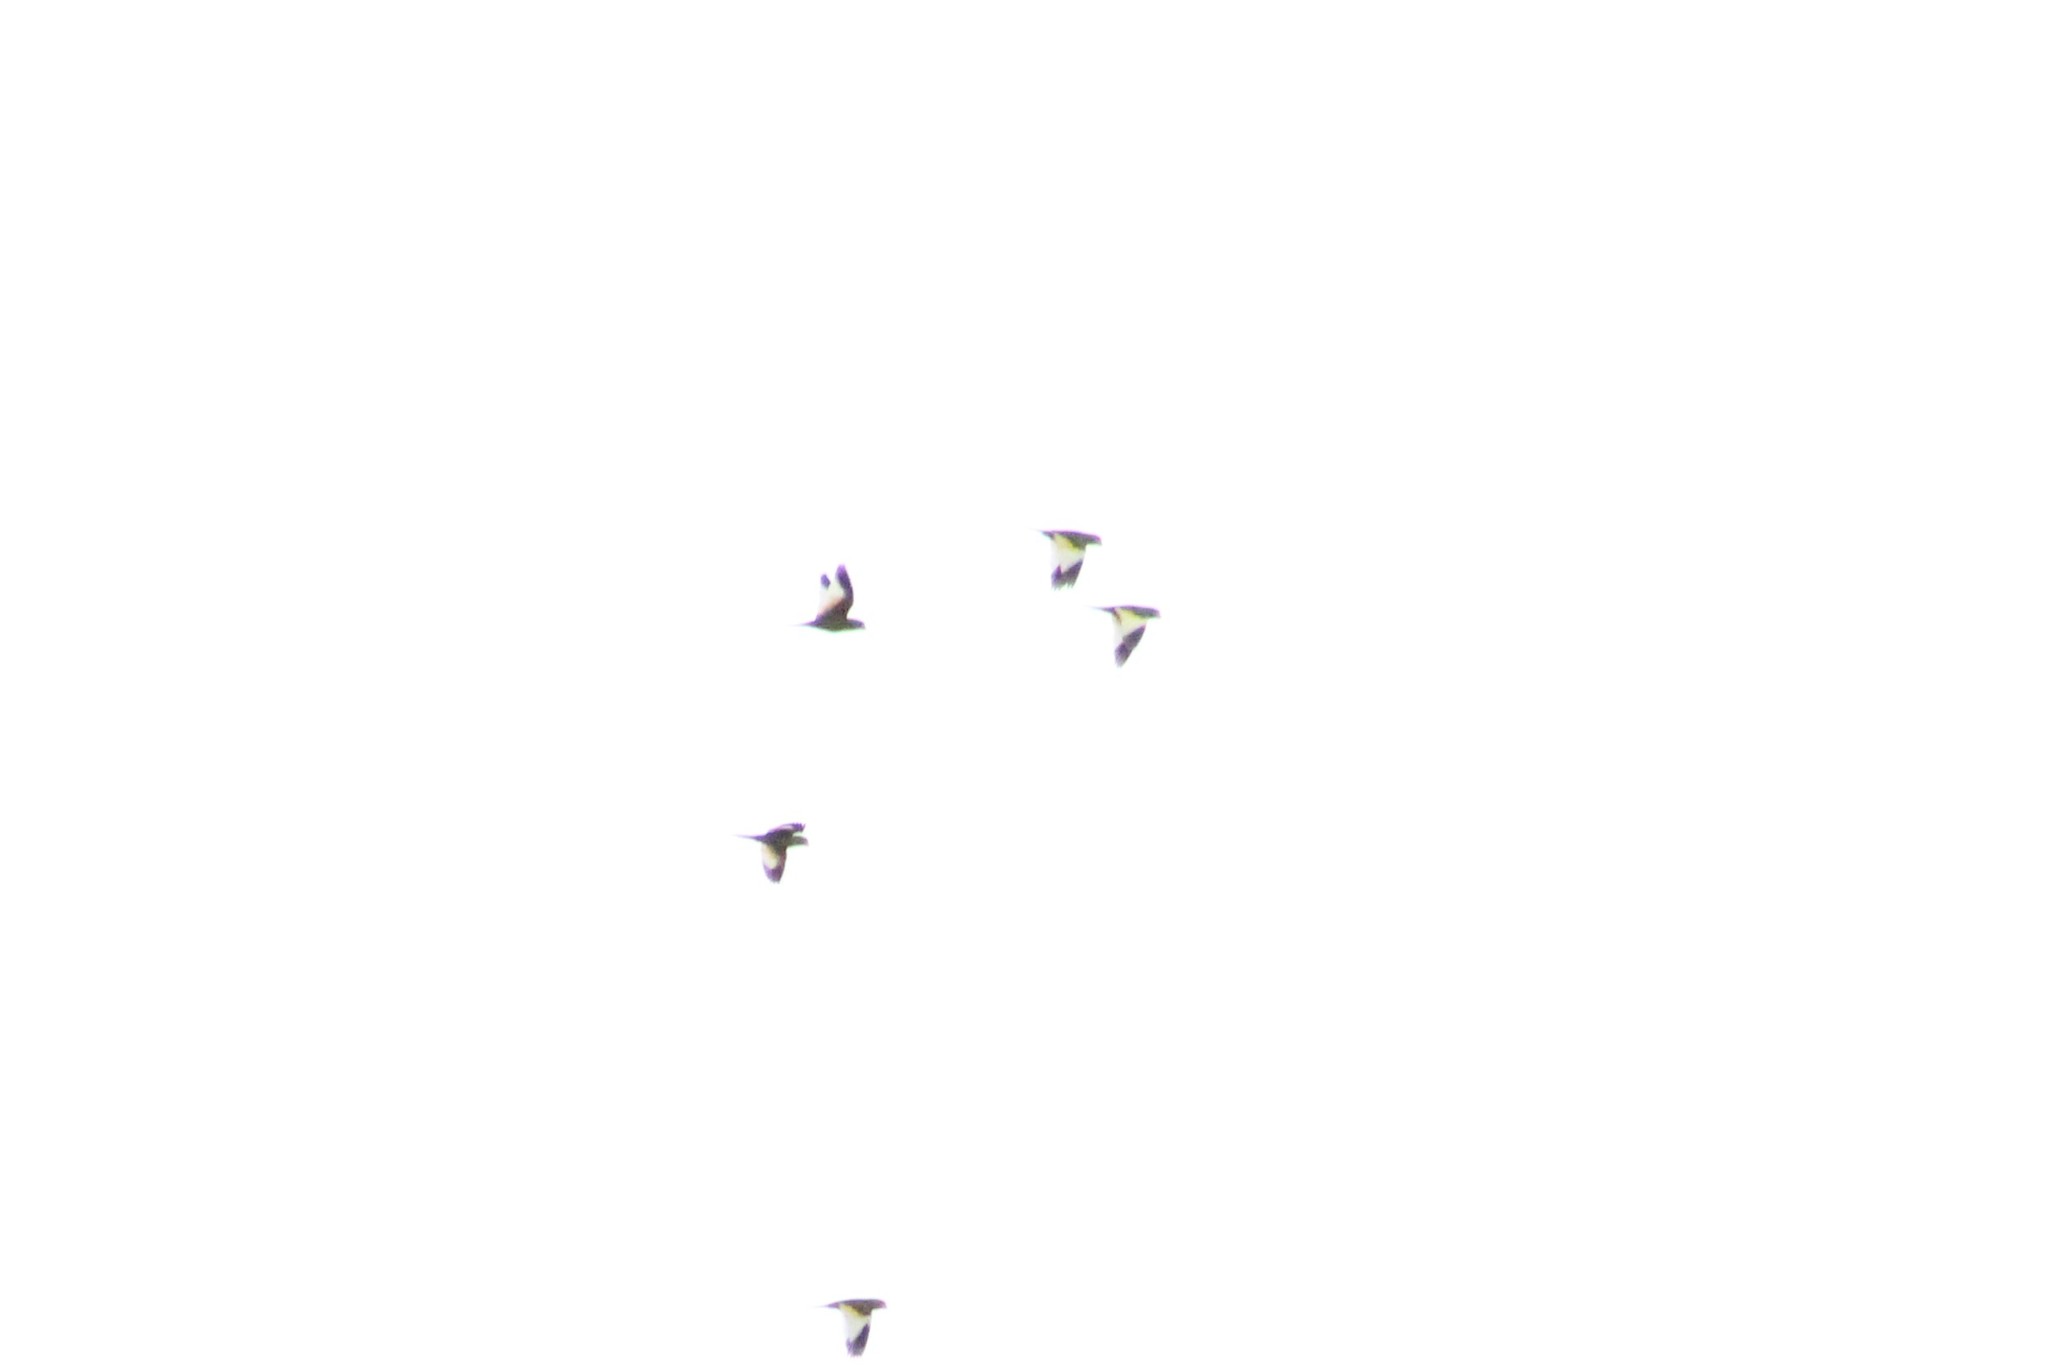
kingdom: Animalia
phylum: Chordata
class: Aves
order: Psittaciformes
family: Psittacidae
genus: Brotogeris
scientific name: Brotogeris versicolurus
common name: White-winged parakeet
